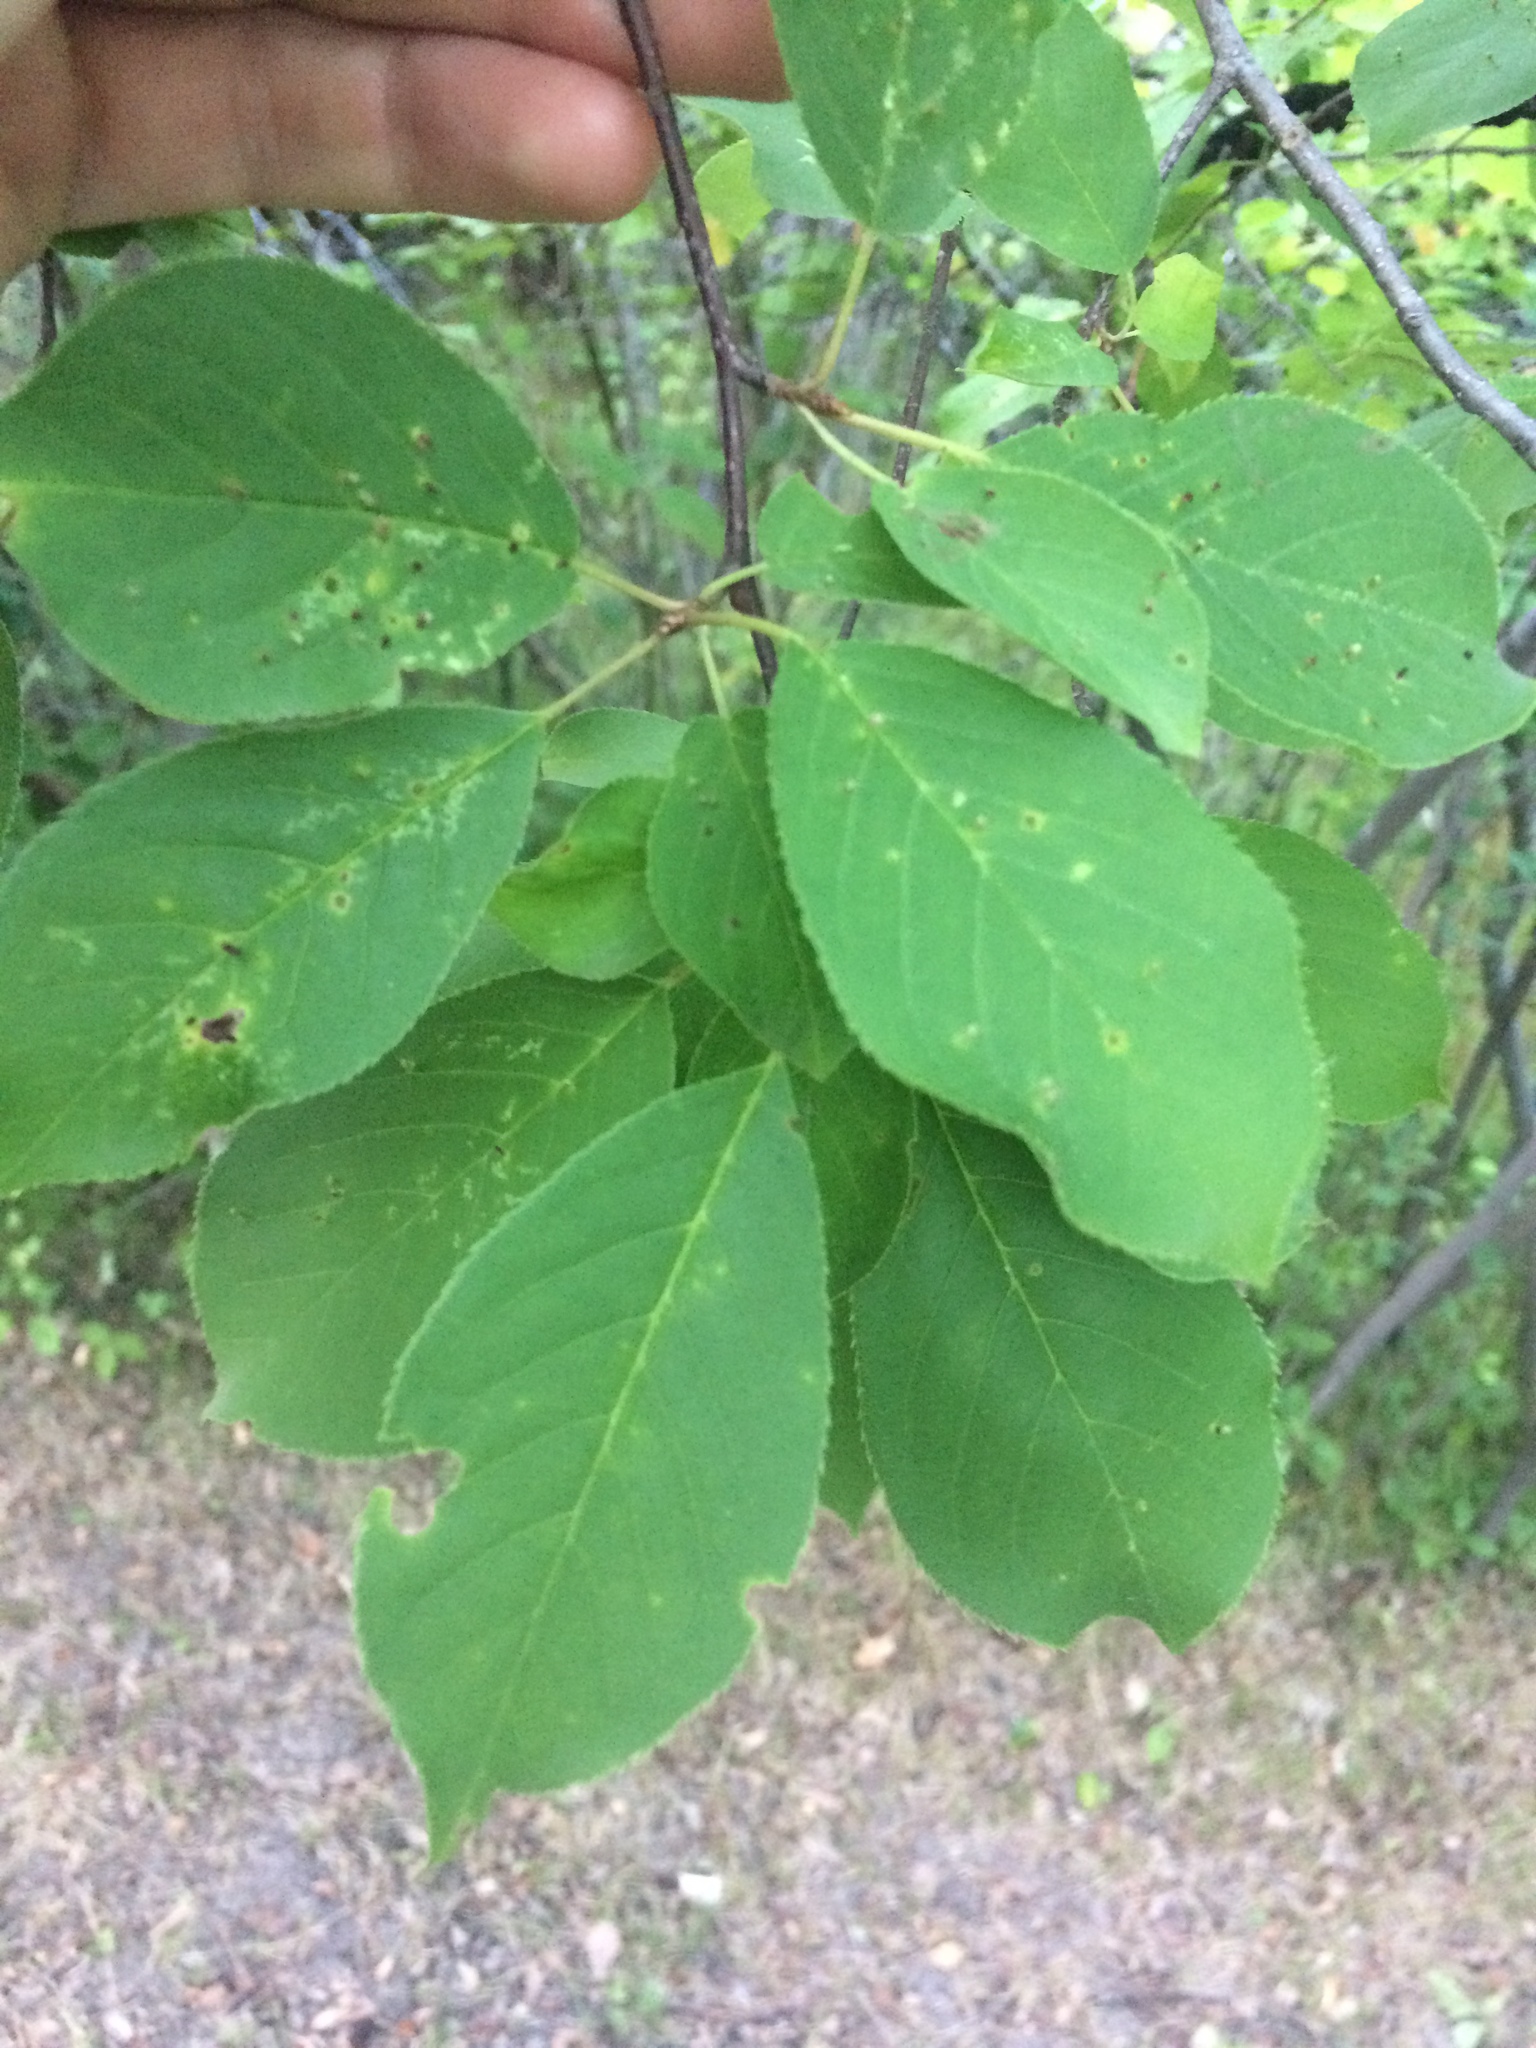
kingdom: Plantae
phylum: Tracheophyta
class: Magnoliopsida
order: Rosales
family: Rosaceae
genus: Prunus
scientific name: Prunus virginiana
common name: Chokecherry
